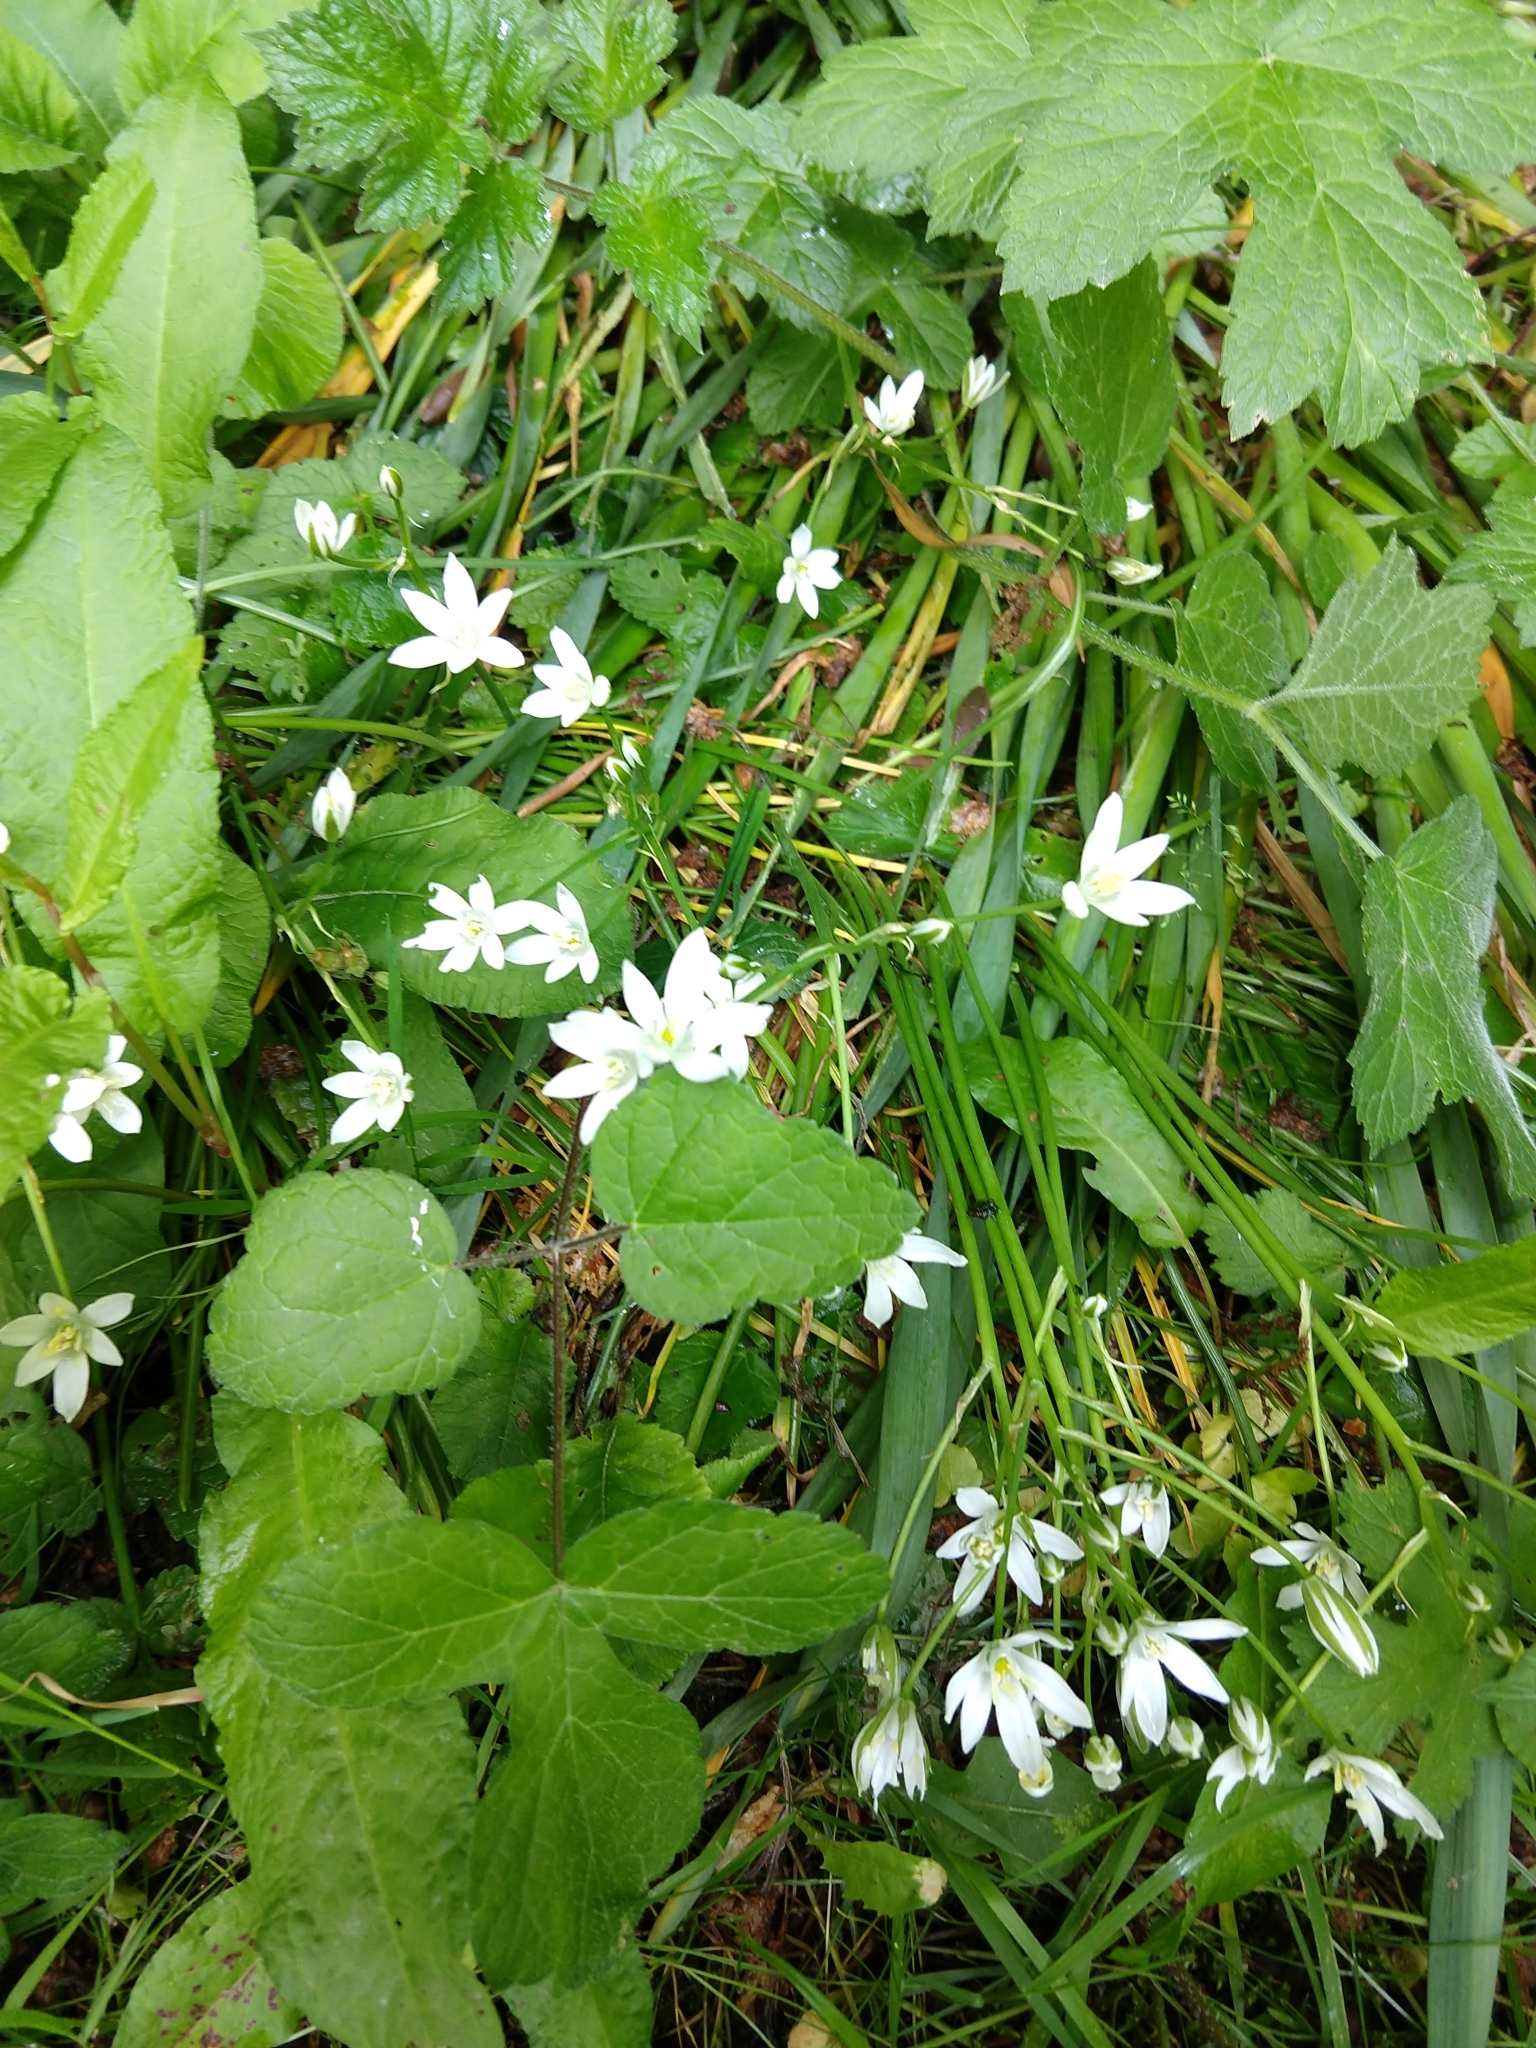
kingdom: Plantae
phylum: Tracheophyta
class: Liliopsida
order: Asparagales
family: Asparagaceae
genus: Ornithogalum
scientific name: Ornithogalum umbellatum
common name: Garden star-of-bethlehem
